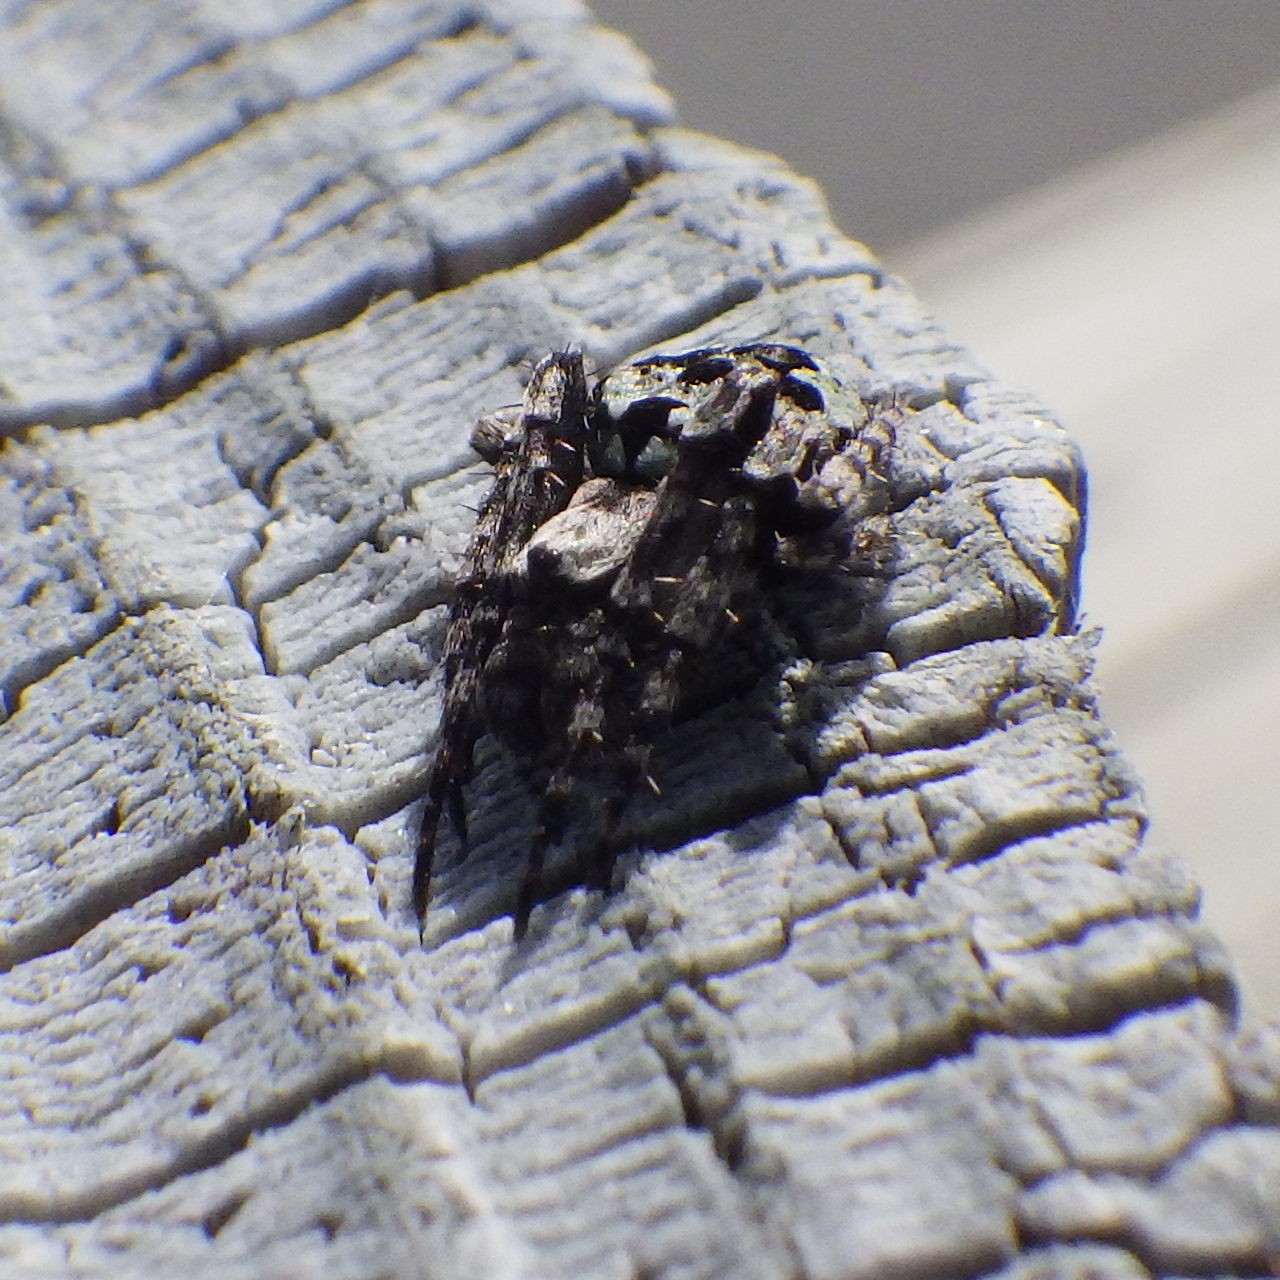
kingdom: Animalia
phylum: Arthropoda
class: Arachnida
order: Araneae
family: Araneidae
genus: Eustala
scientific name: Eustala anastera
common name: Orb weavers
